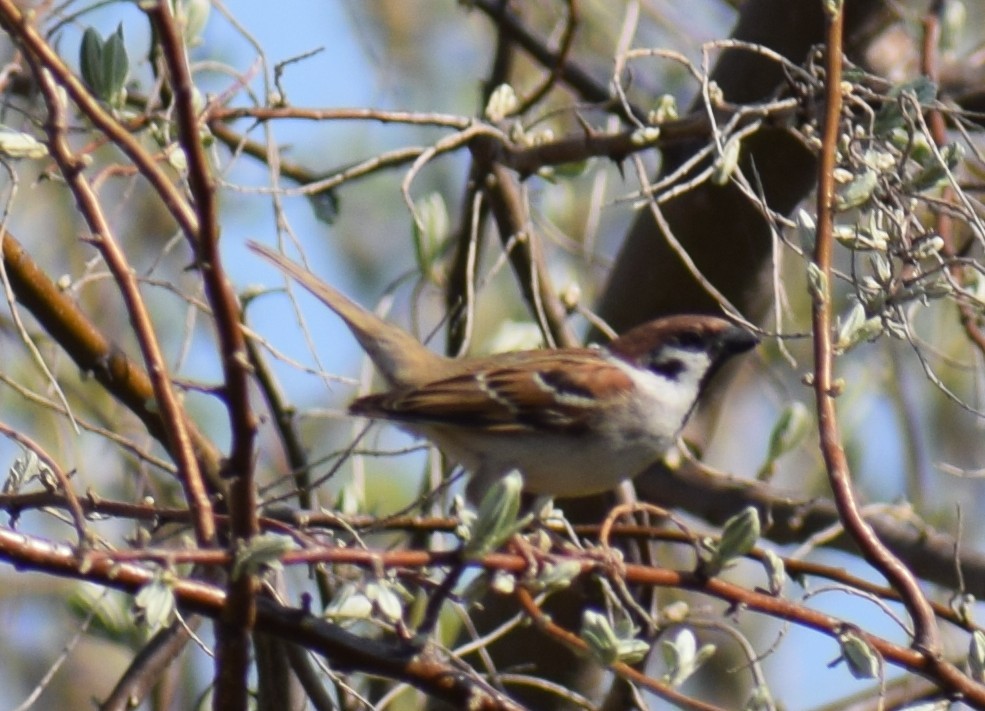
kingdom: Animalia
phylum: Chordata
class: Aves
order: Passeriformes
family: Passeridae
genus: Passer
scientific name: Passer montanus
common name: Eurasian tree sparrow
